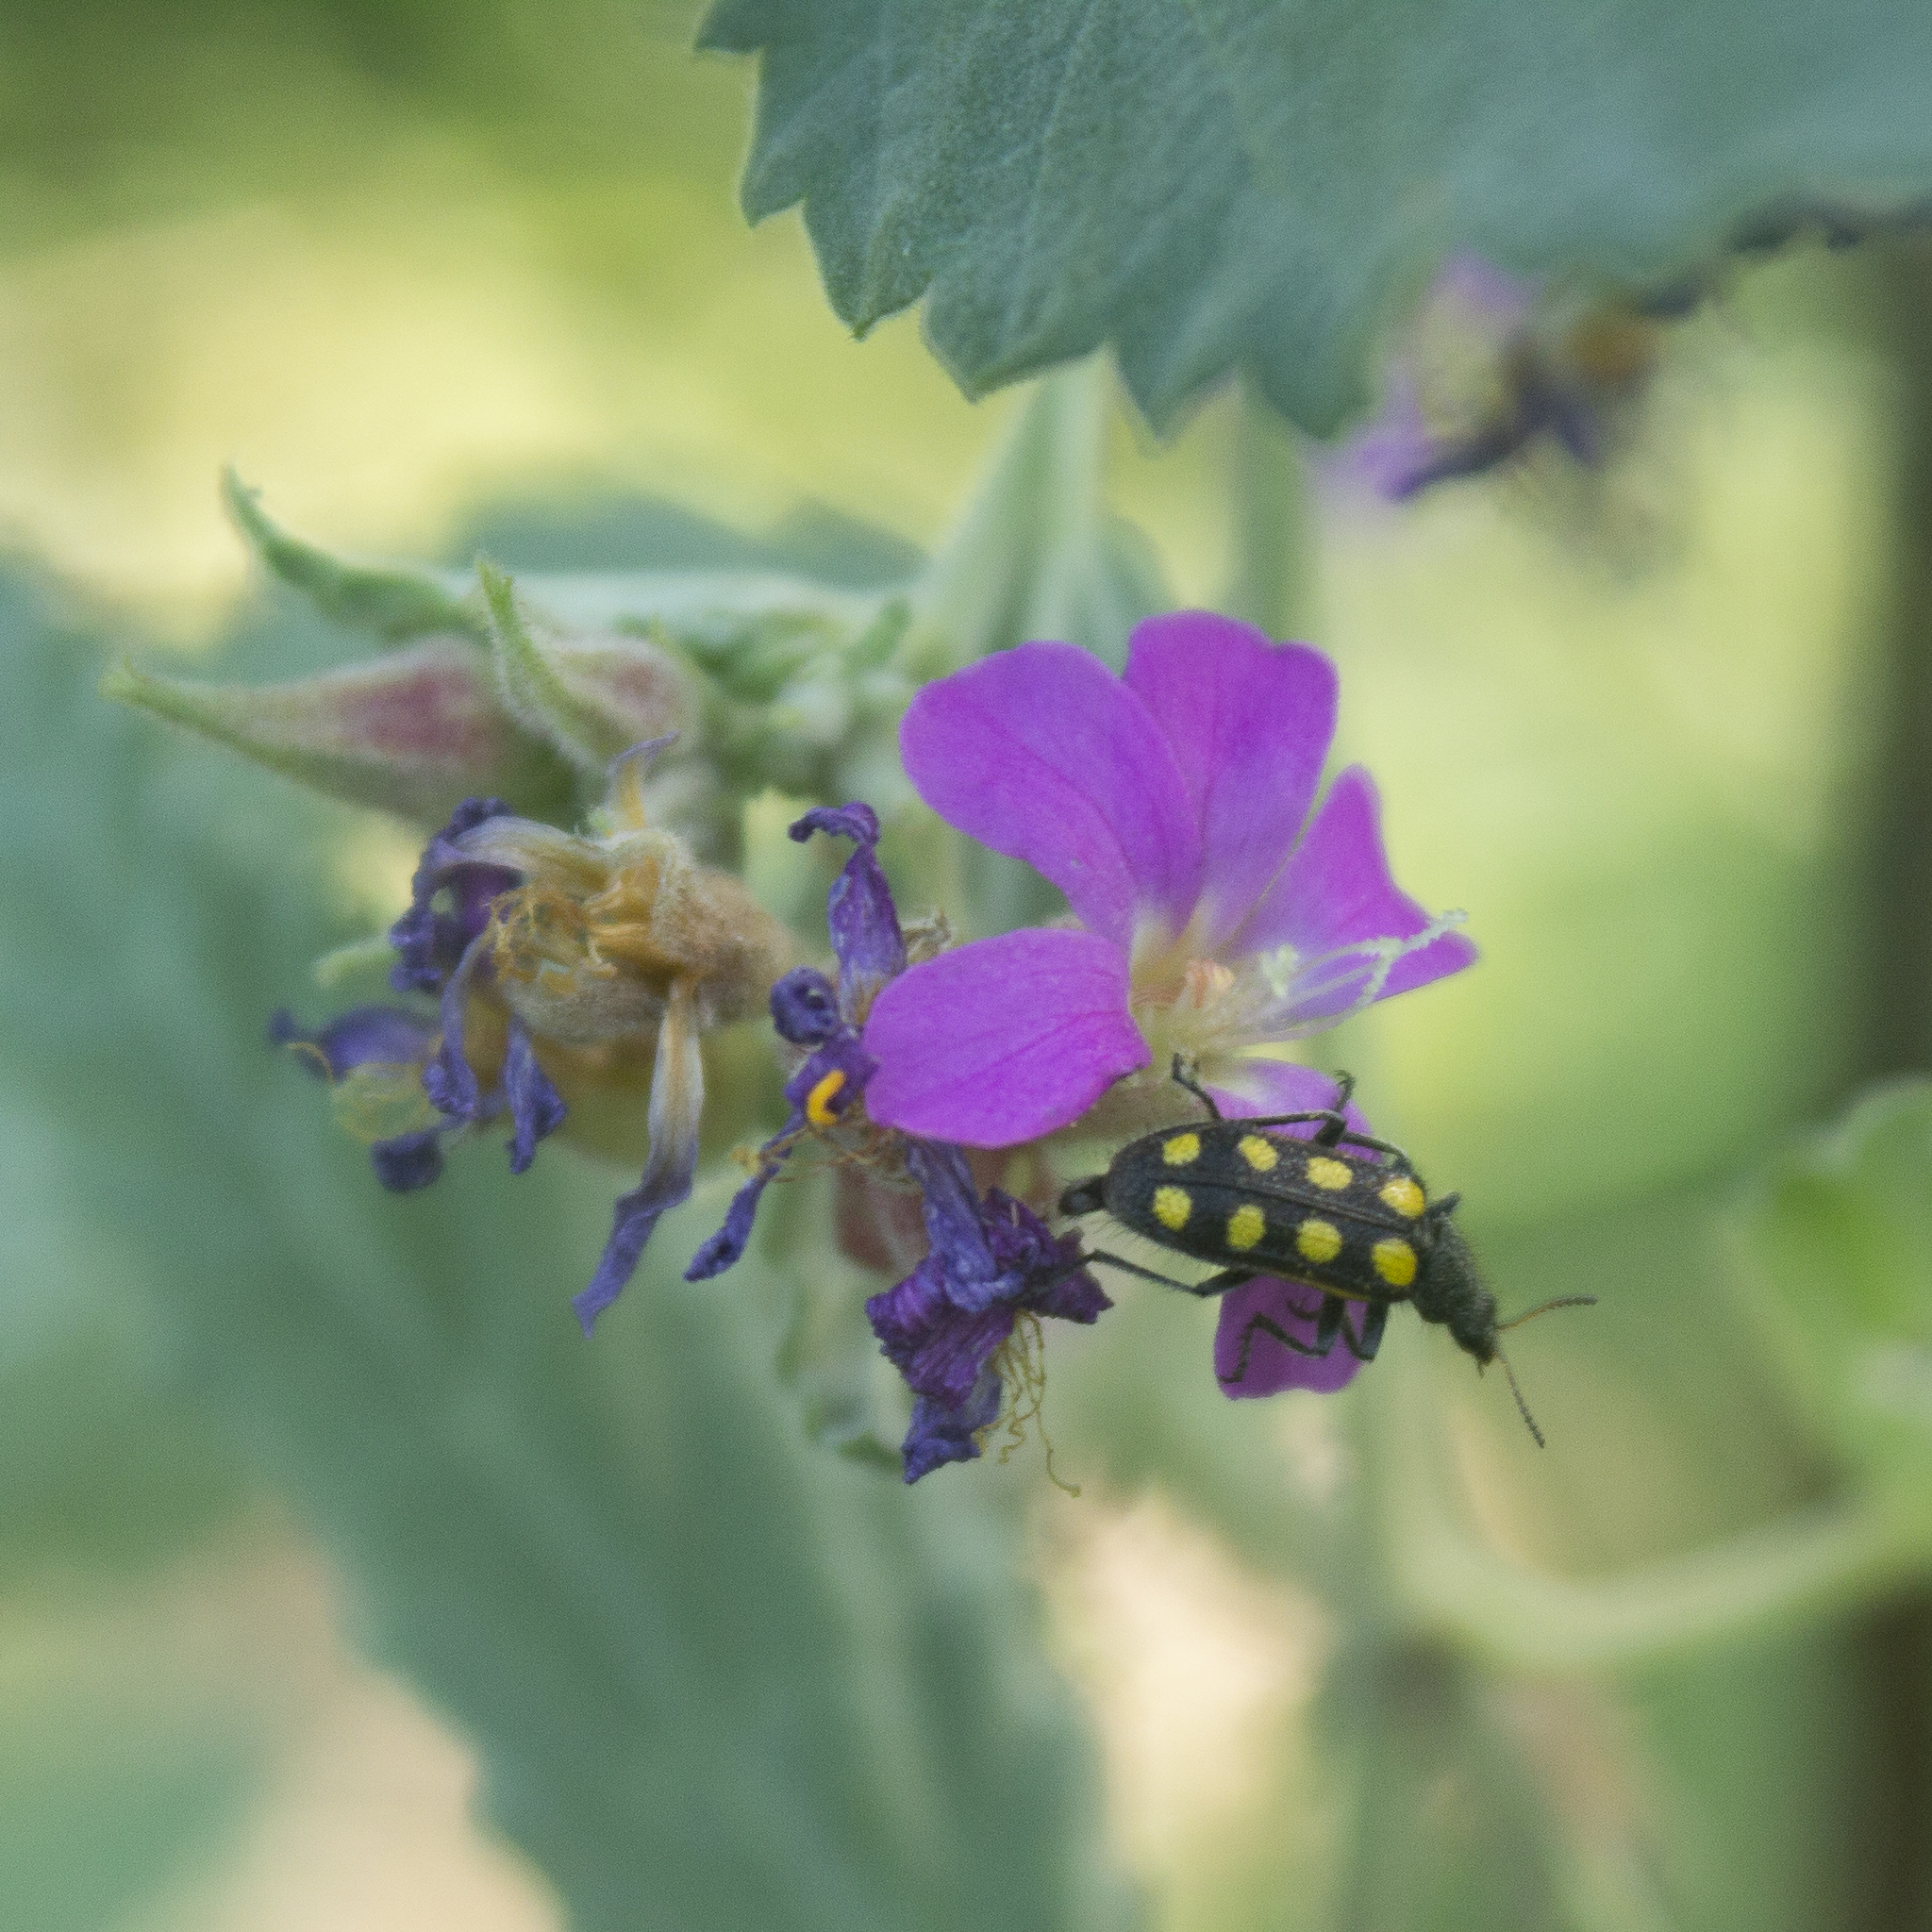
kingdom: Animalia
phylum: Arthropoda
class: Insecta
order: Coleoptera
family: Melyridae
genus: Astylus
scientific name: Astylus
